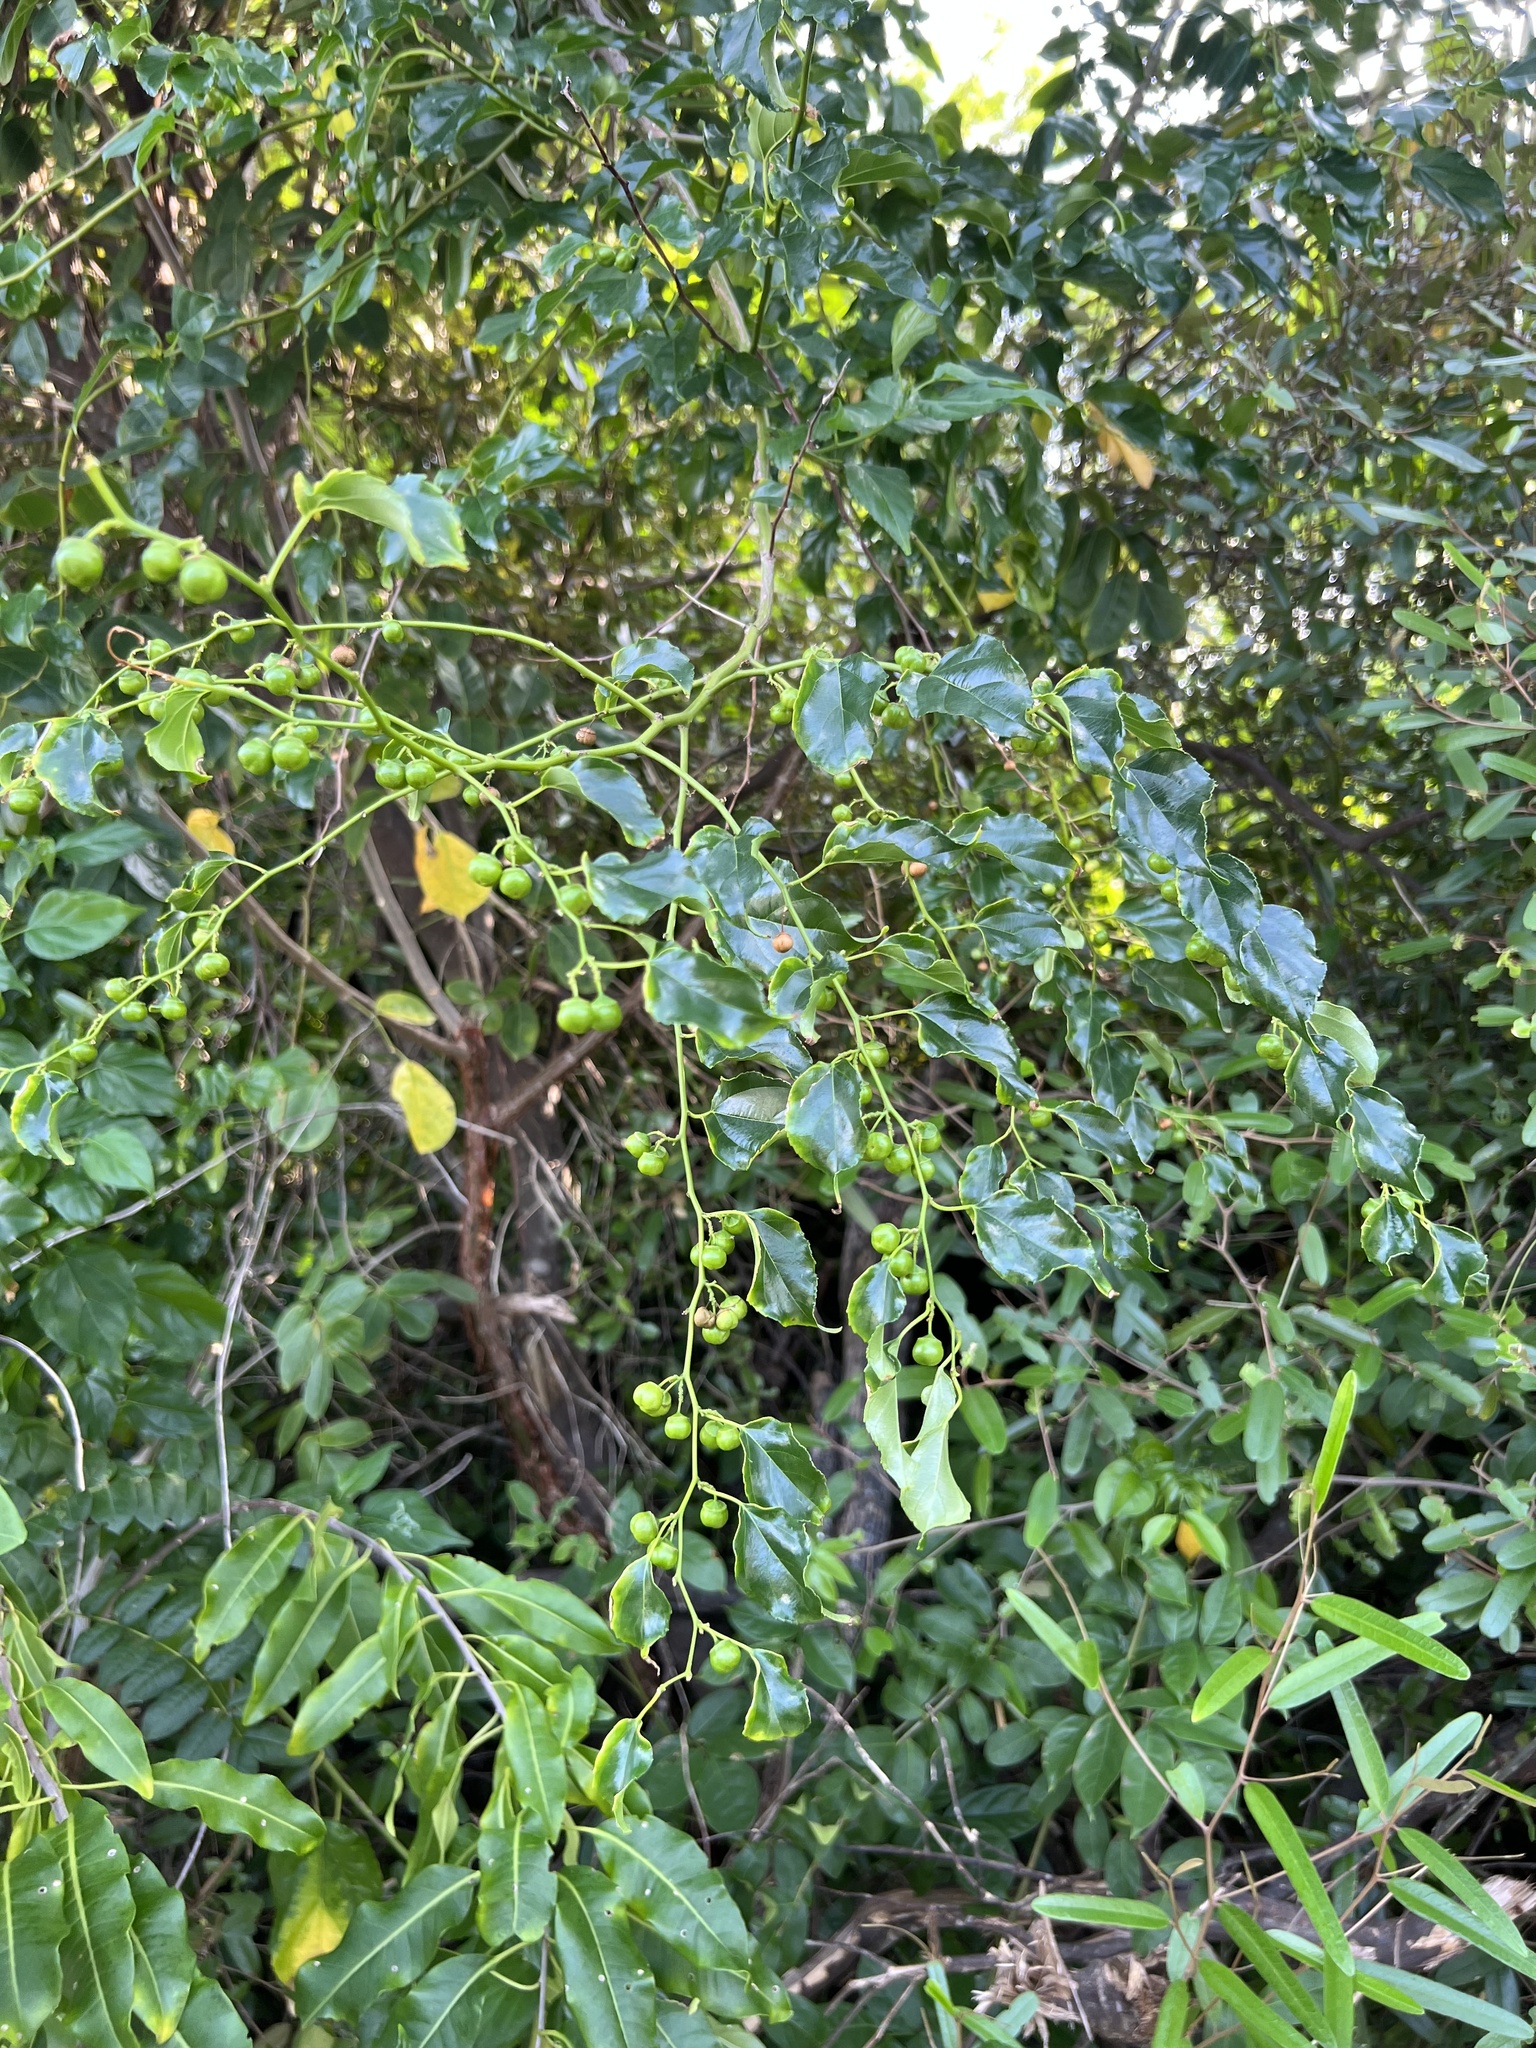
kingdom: Plantae
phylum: Tracheophyta
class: Magnoliopsida
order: Rosales
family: Rhamnaceae
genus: Colubrina
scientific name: Colubrina asiatica
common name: Asian nakedwood
